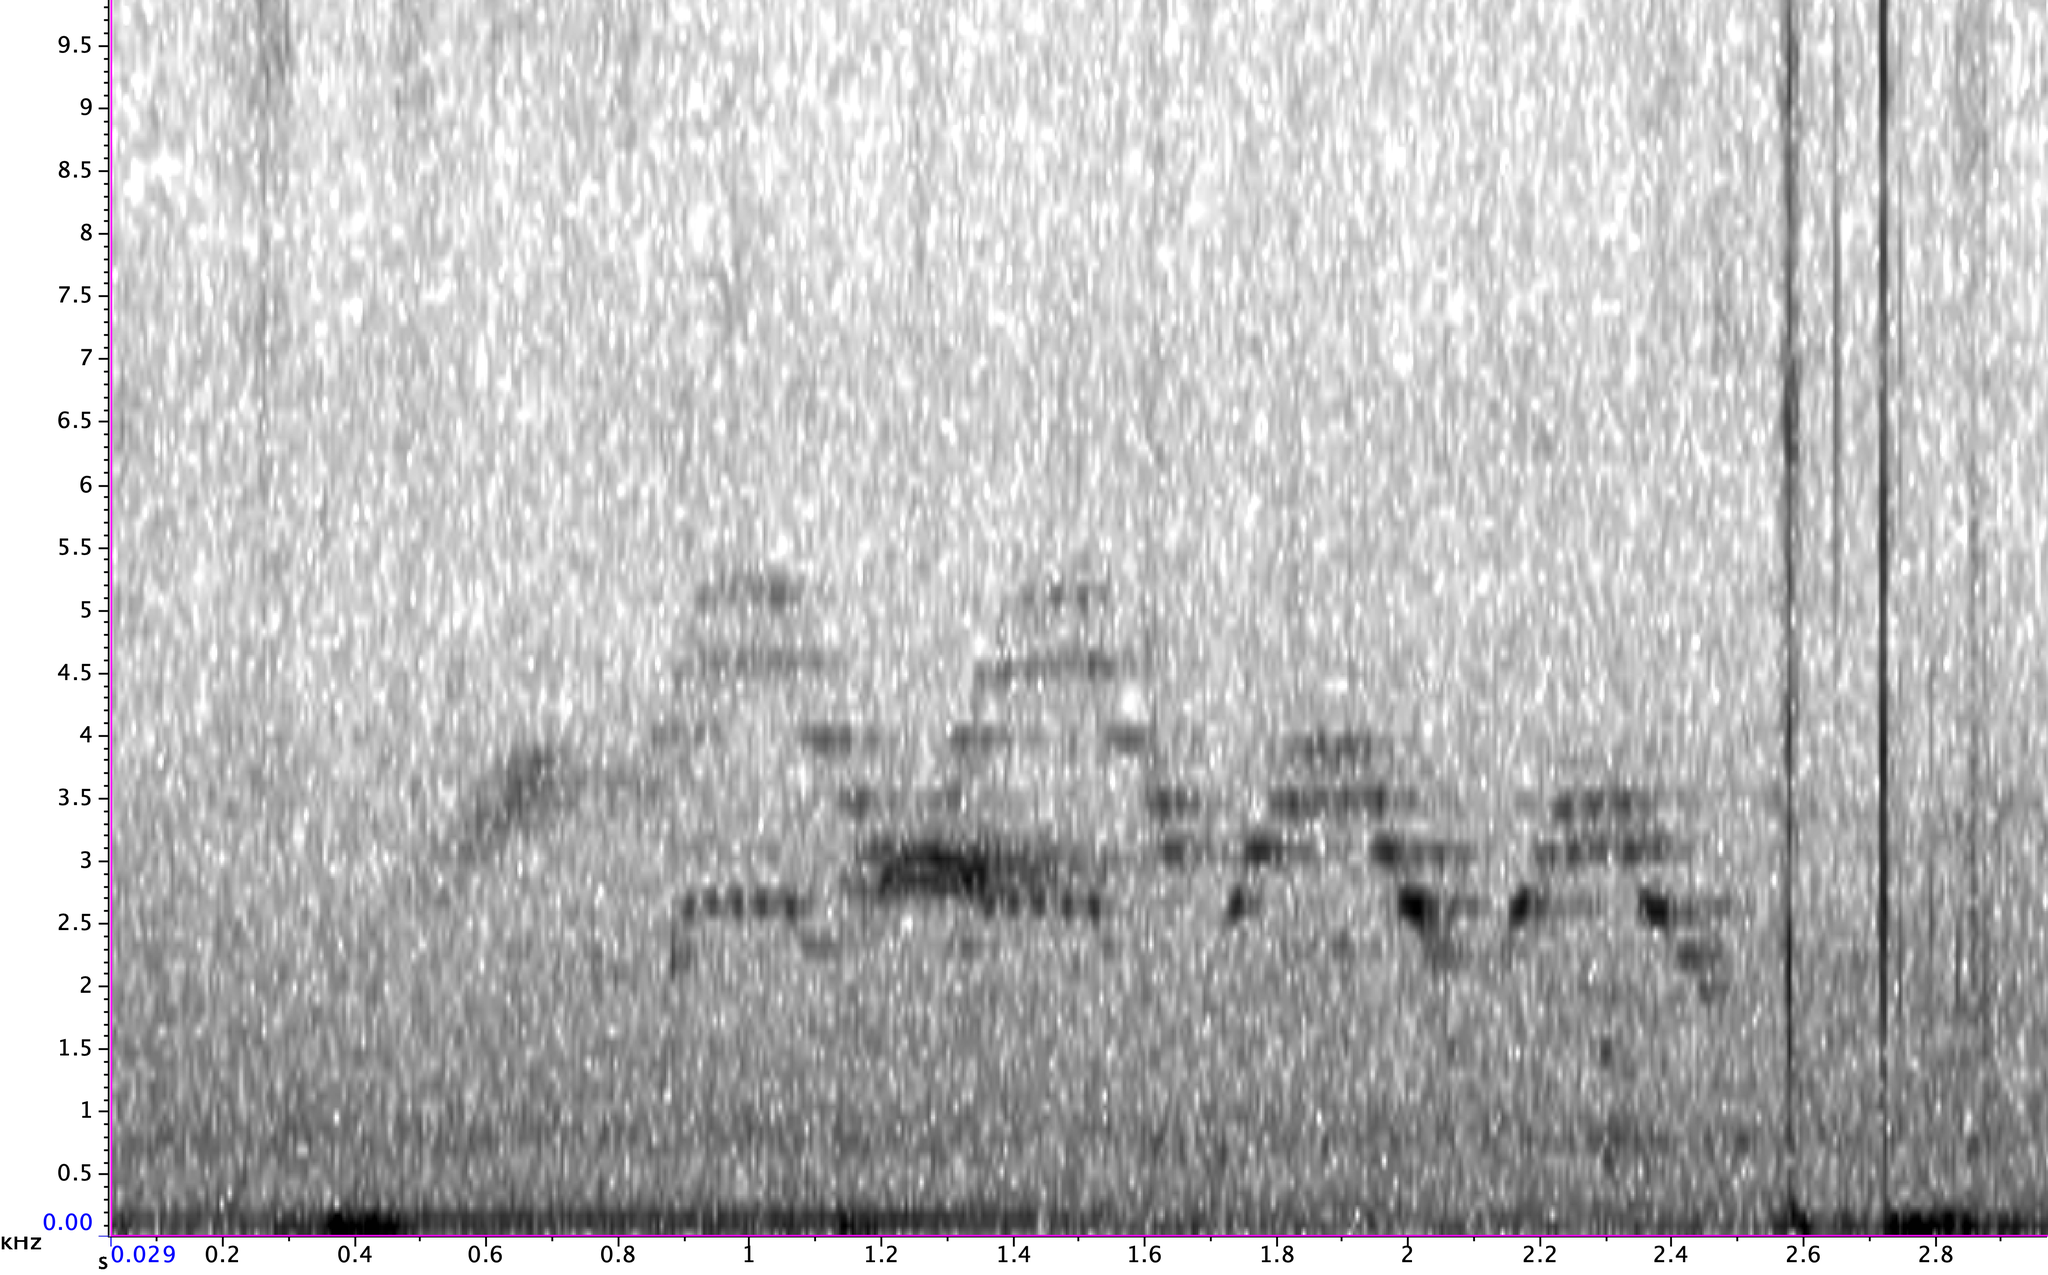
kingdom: Animalia
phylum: Chordata
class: Aves
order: Passeriformes
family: Turdidae
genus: Catharus
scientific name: Catharus fuscescens
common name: Veery
